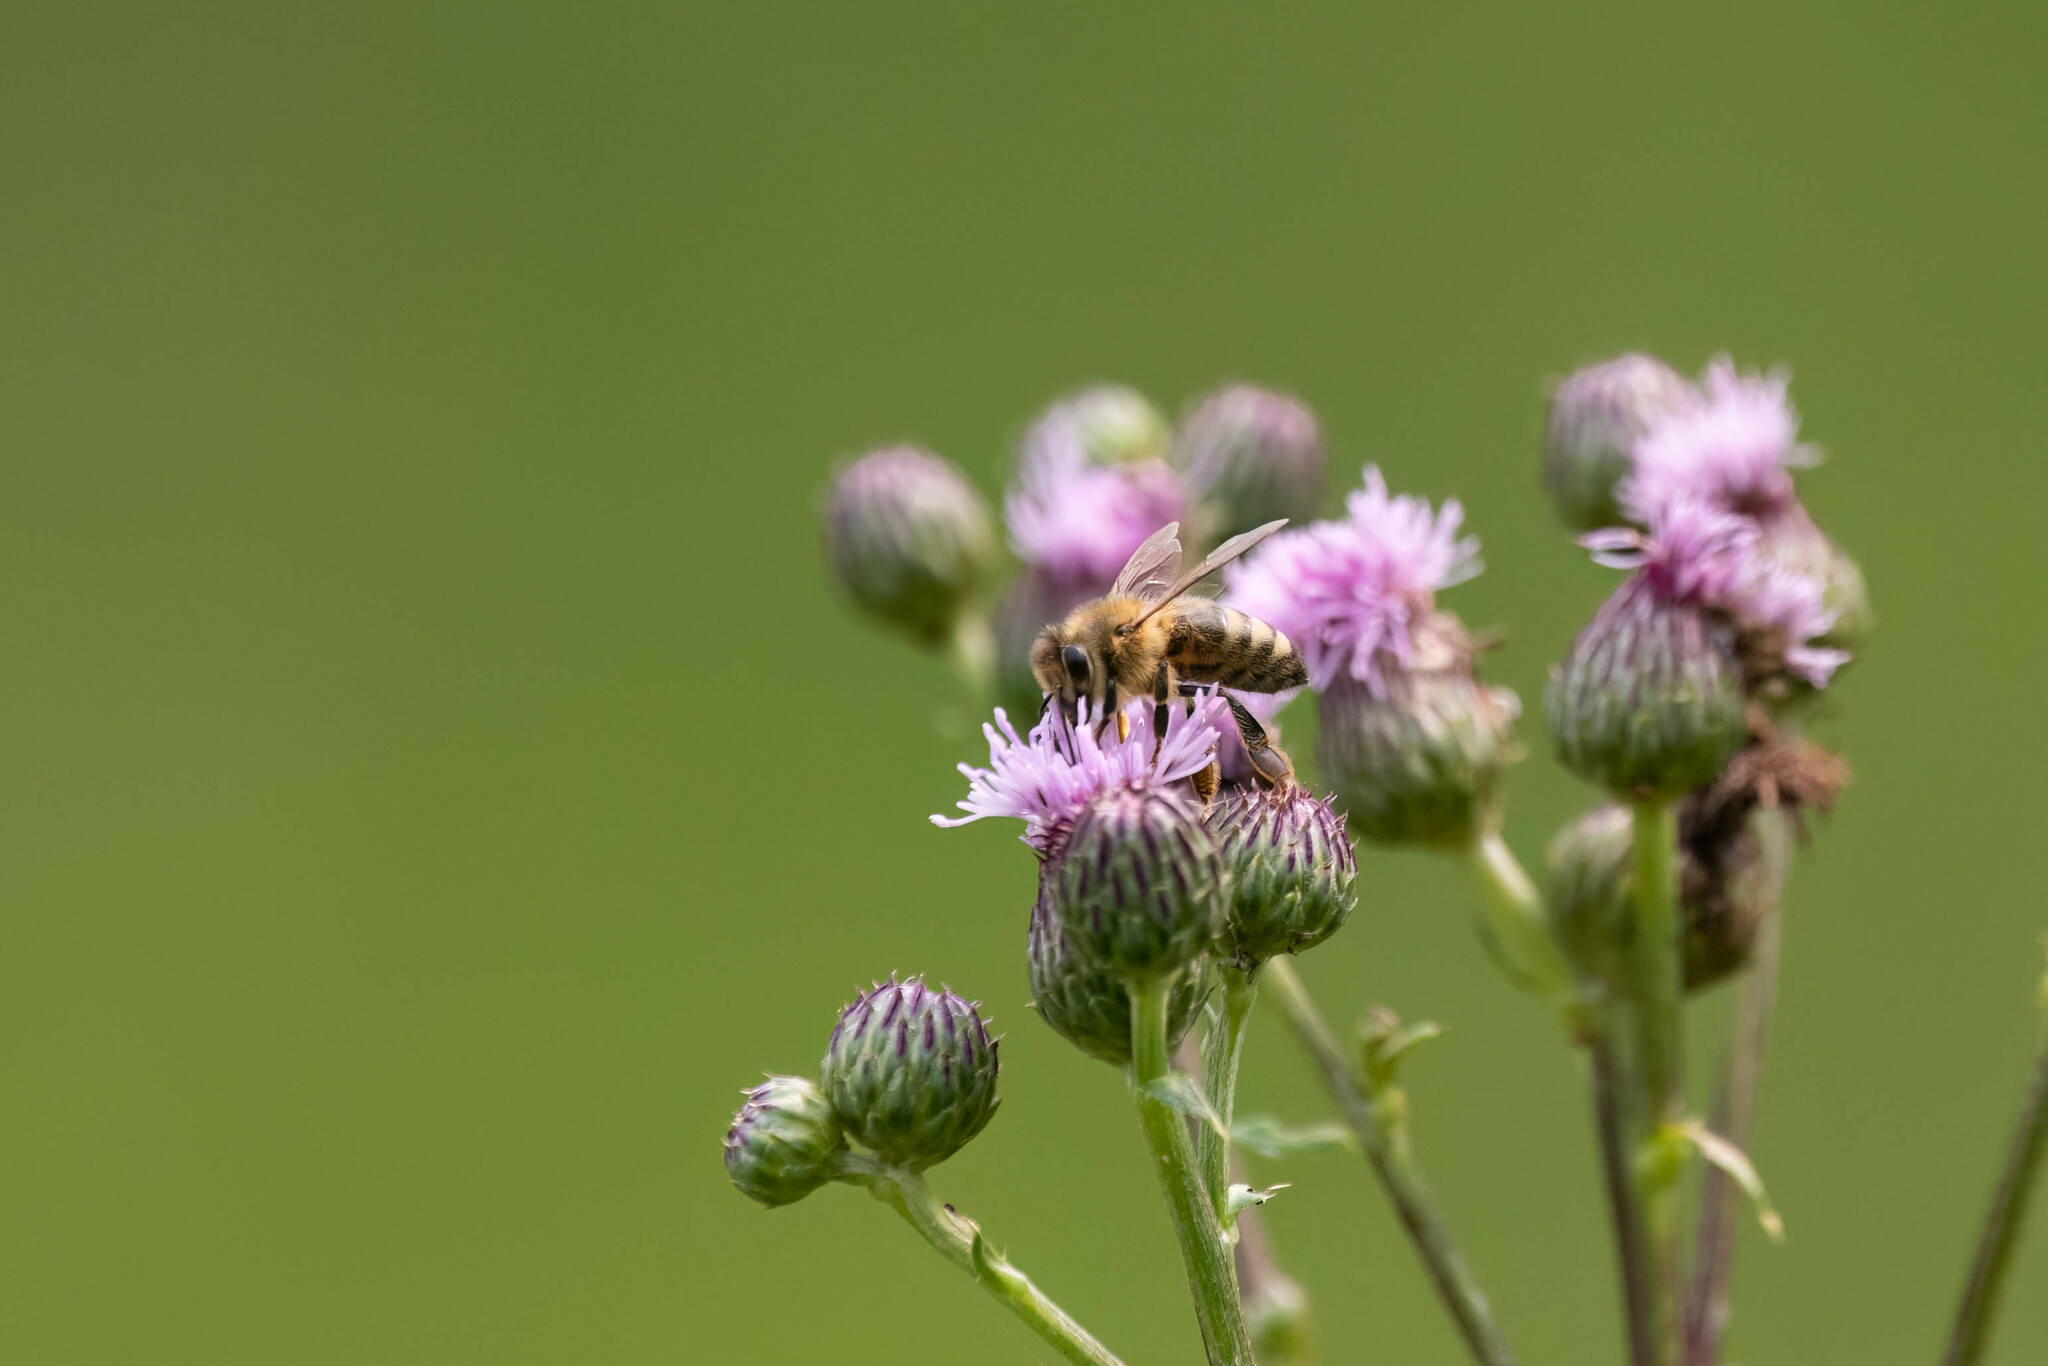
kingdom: Animalia
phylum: Arthropoda
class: Insecta
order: Hymenoptera
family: Apidae
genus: Apis
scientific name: Apis mellifera
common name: Honey bee
